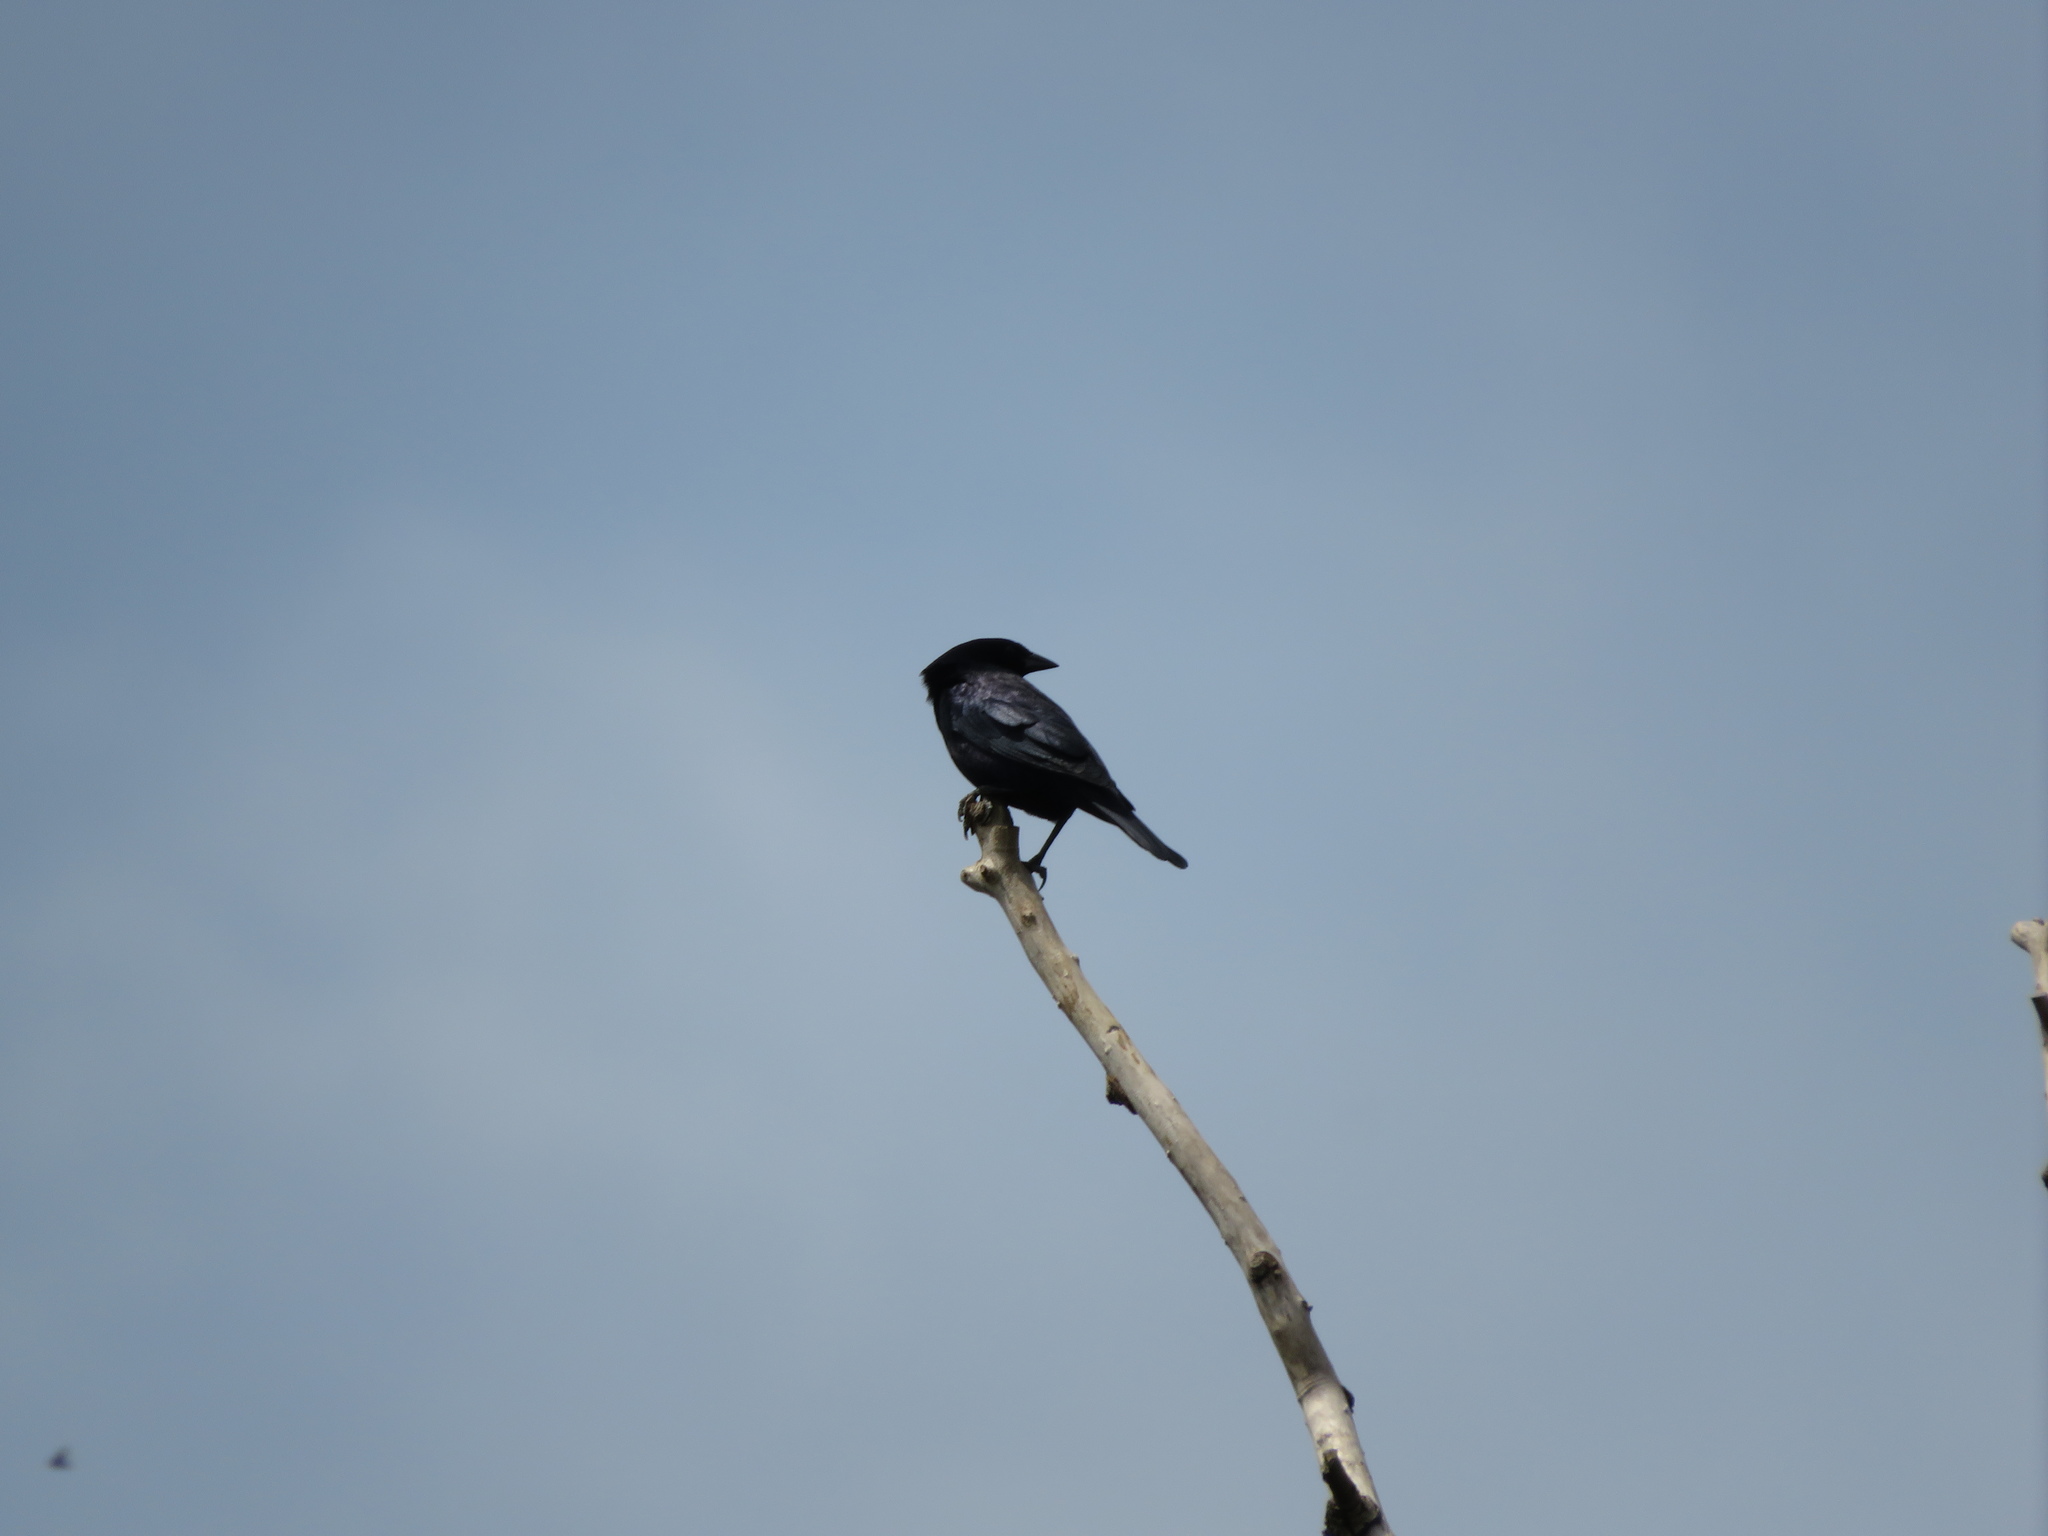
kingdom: Animalia
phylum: Chordata
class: Aves
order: Passeriformes
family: Icteridae
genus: Molothrus
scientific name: Molothrus bonariensis
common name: Shiny cowbird
